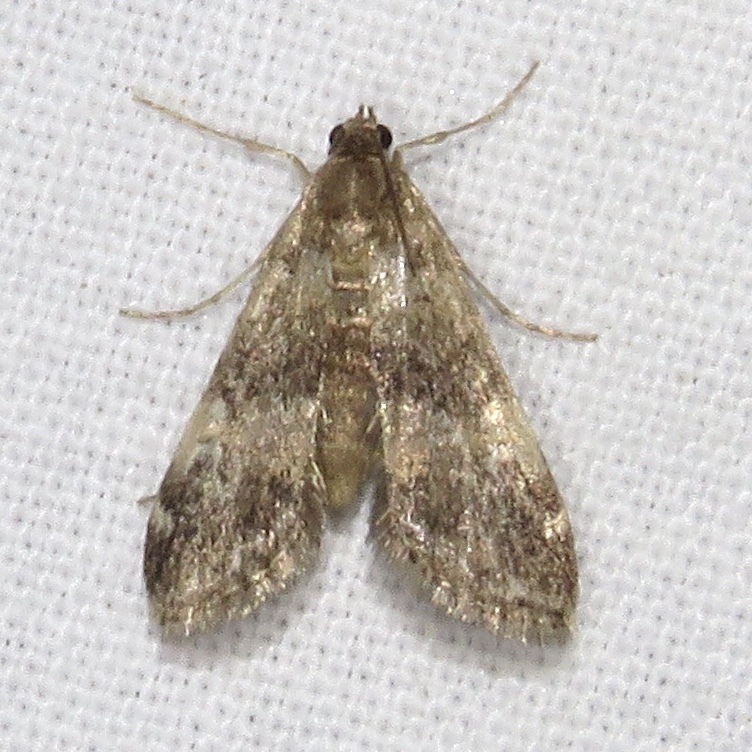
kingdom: Animalia
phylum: Arthropoda
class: Insecta
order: Lepidoptera
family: Crambidae
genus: Elophila
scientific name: Elophila obliteralis
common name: Waterlily leafcutter moth
